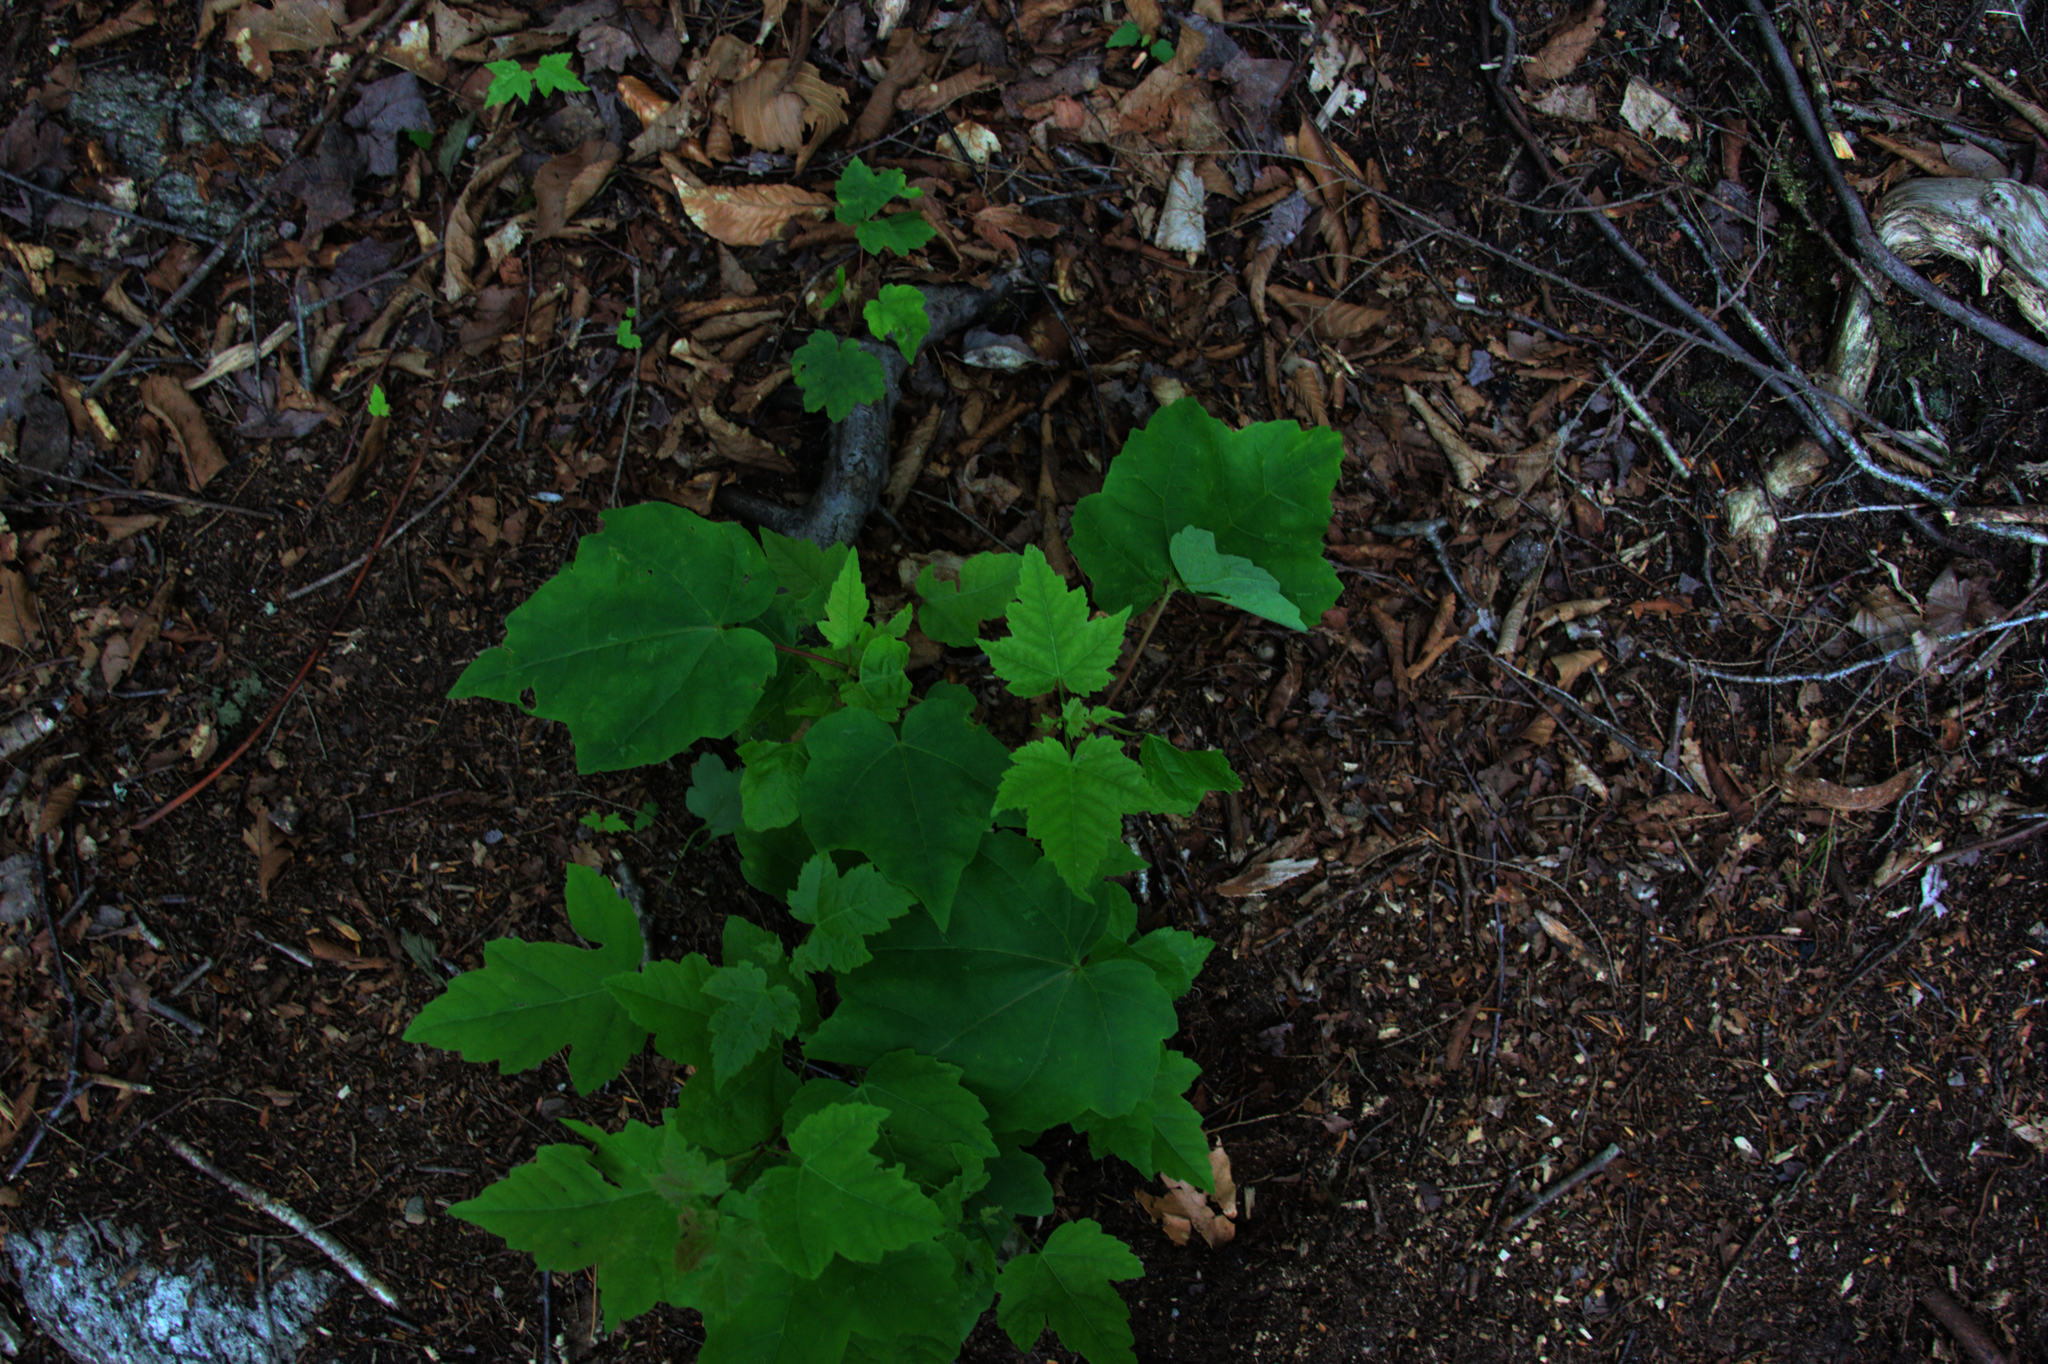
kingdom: Plantae
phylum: Tracheophyta
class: Magnoliopsida
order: Sapindales
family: Sapindaceae
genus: Acer
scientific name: Acer rubrum
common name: Red maple
